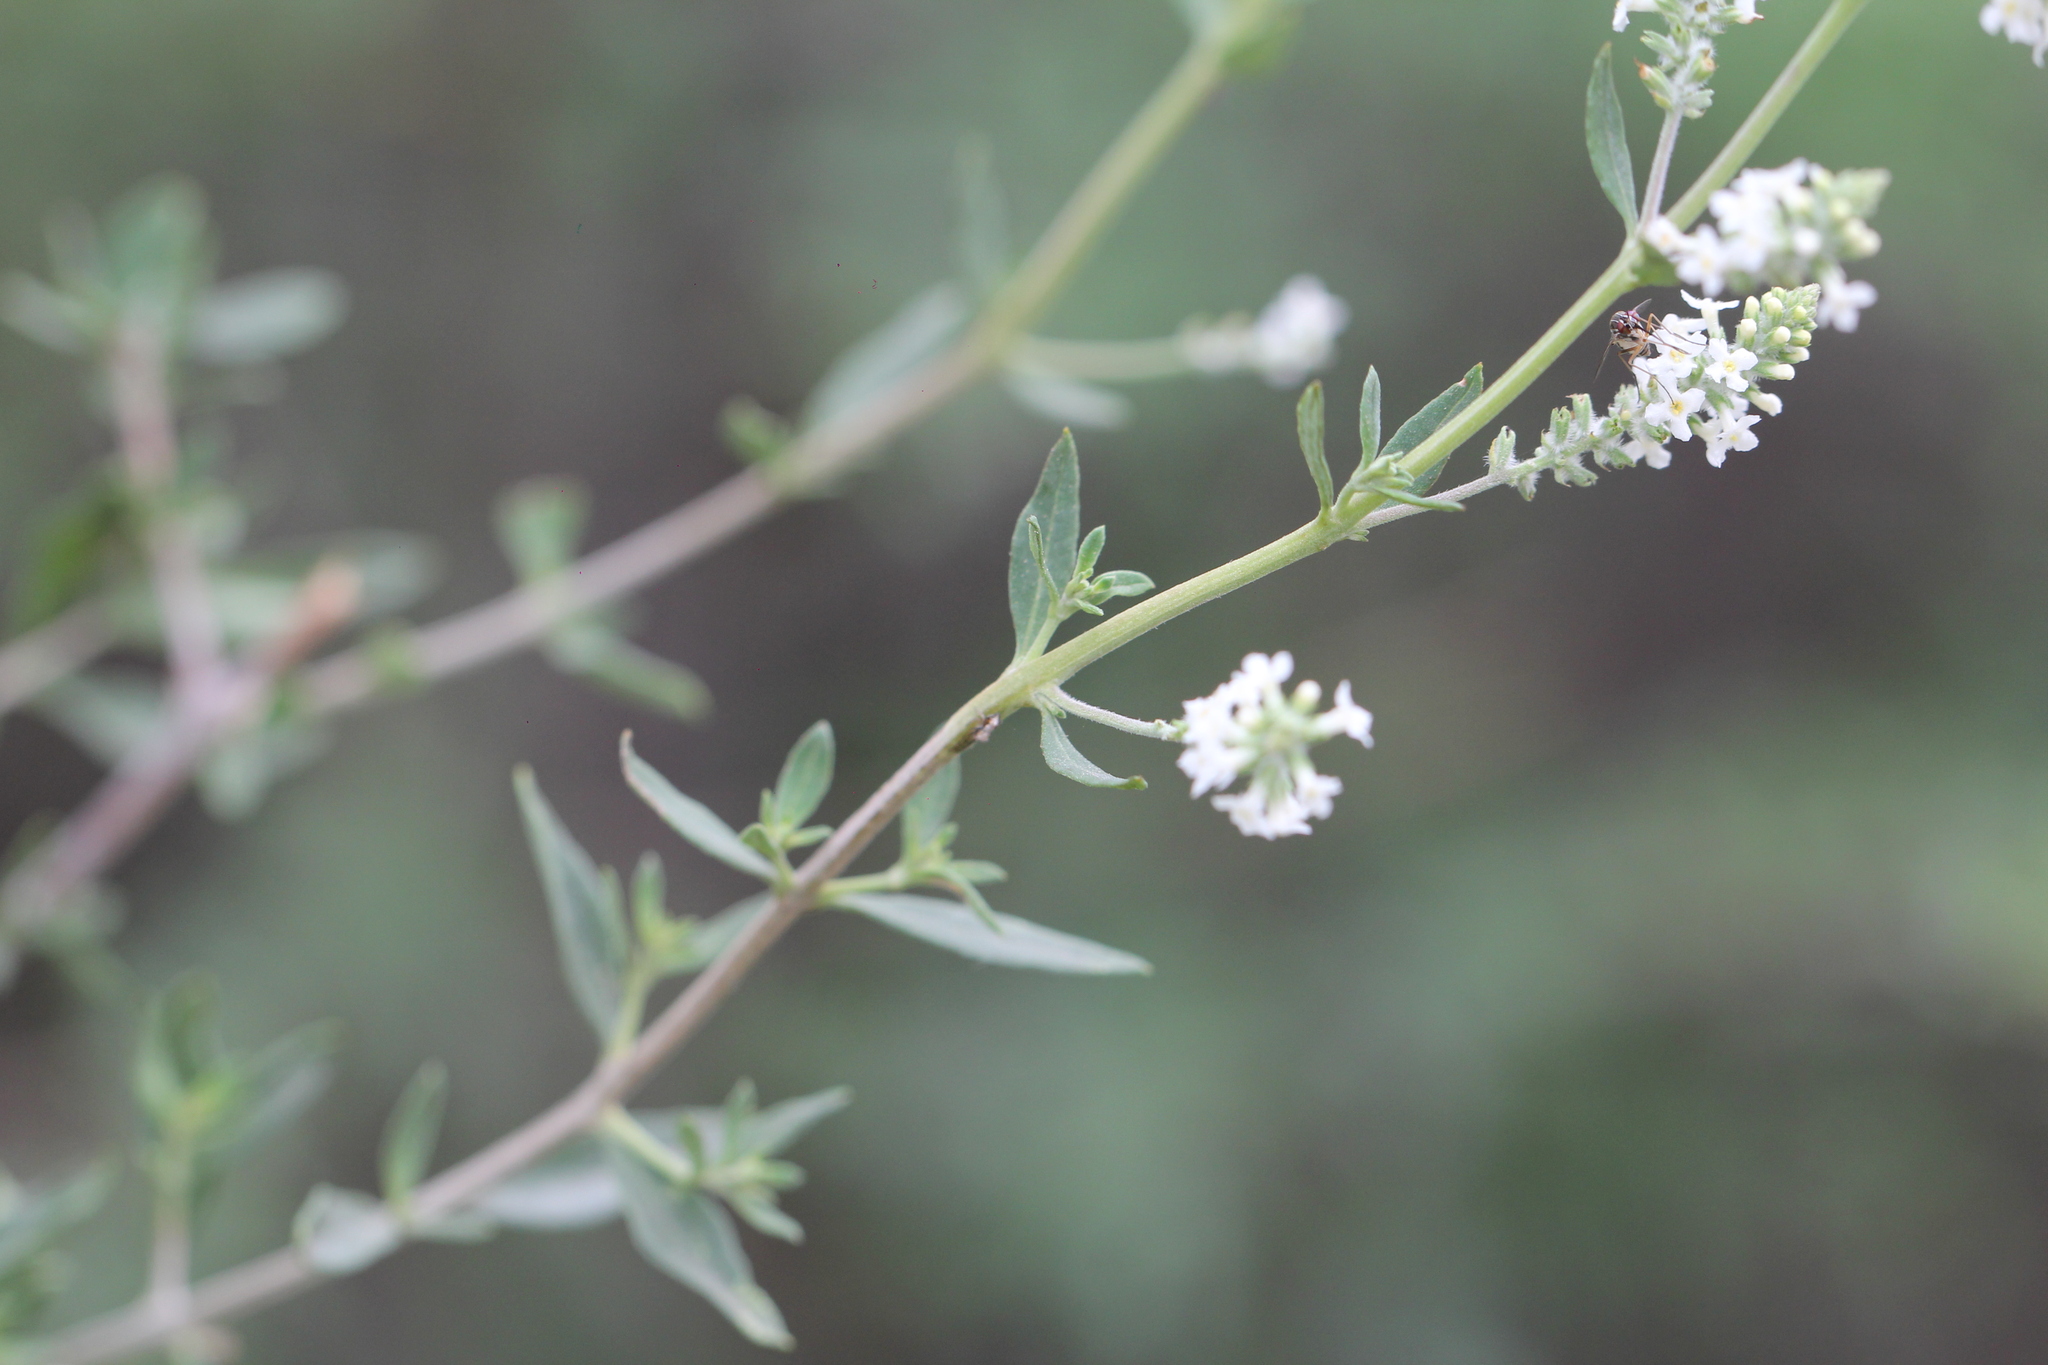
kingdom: Plantae
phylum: Tracheophyta
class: Magnoliopsida
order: Lamiales
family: Verbenaceae
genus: Aloysia
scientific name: Aloysia gratissima
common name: Common bee-brush
